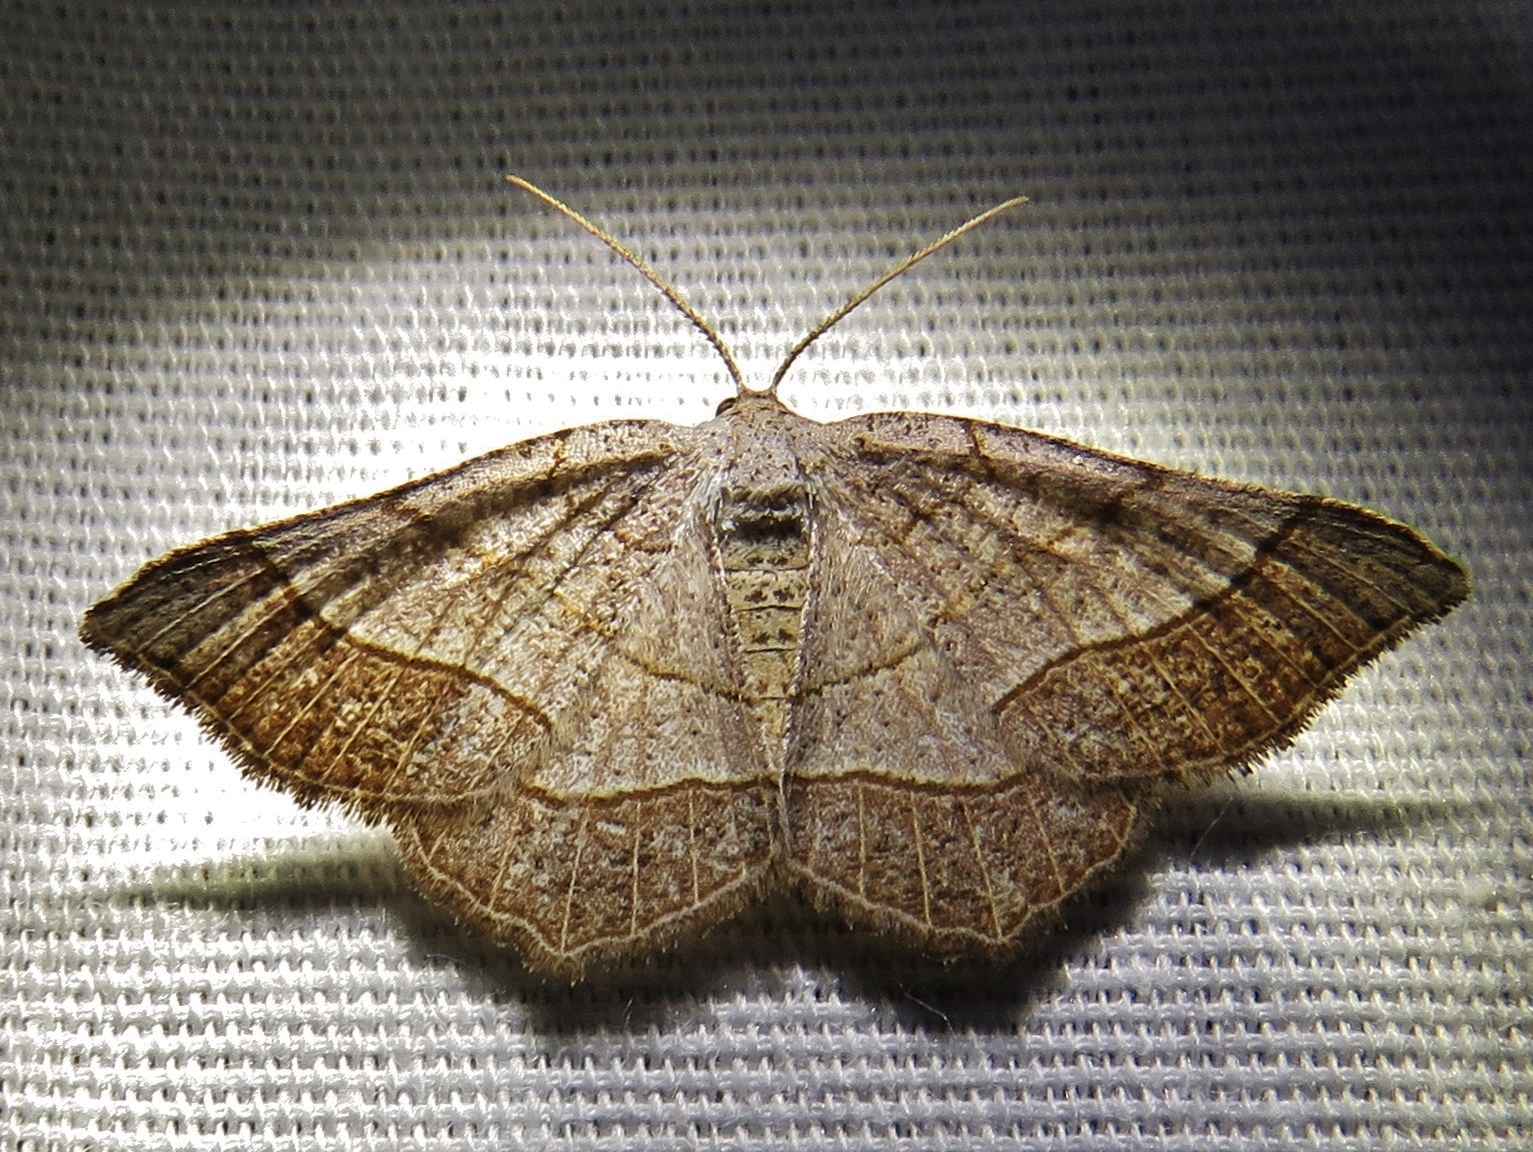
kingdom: Animalia
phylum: Arthropoda
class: Insecta
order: Lepidoptera
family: Geometridae
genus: Eumacaria
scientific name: Eumacaria madopata
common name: Brown-bordered geometer
